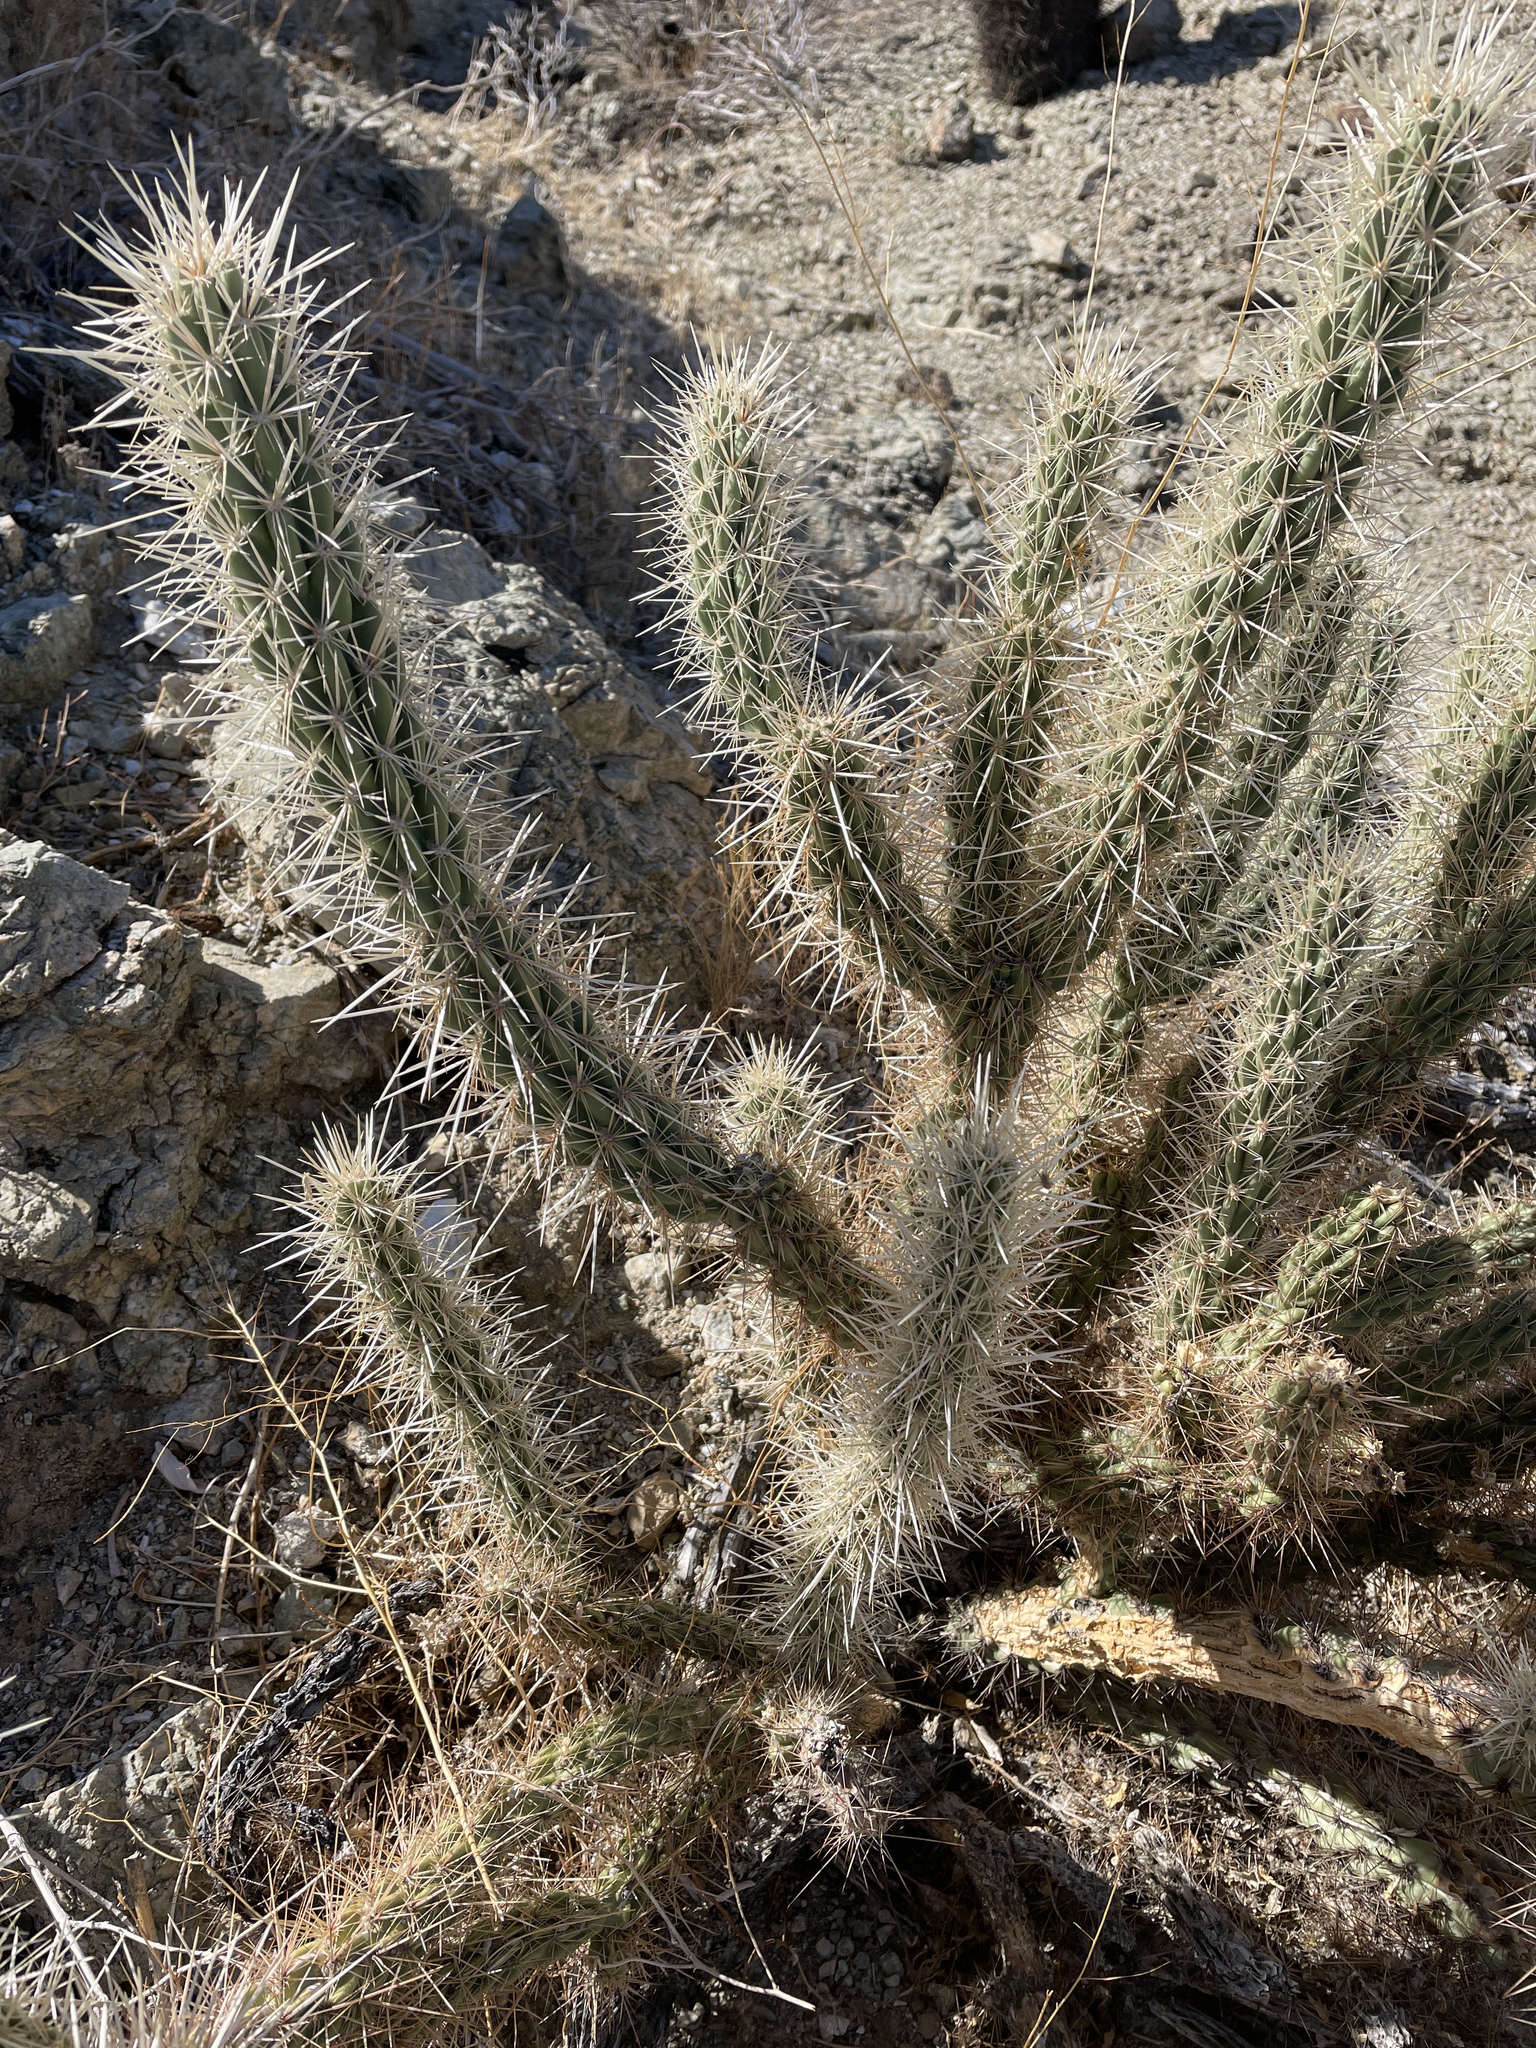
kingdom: Plantae
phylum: Tracheophyta
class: Magnoliopsida
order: Caryophyllales
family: Cactaceae
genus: Cylindropuntia
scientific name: Cylindropuntia ganderi
